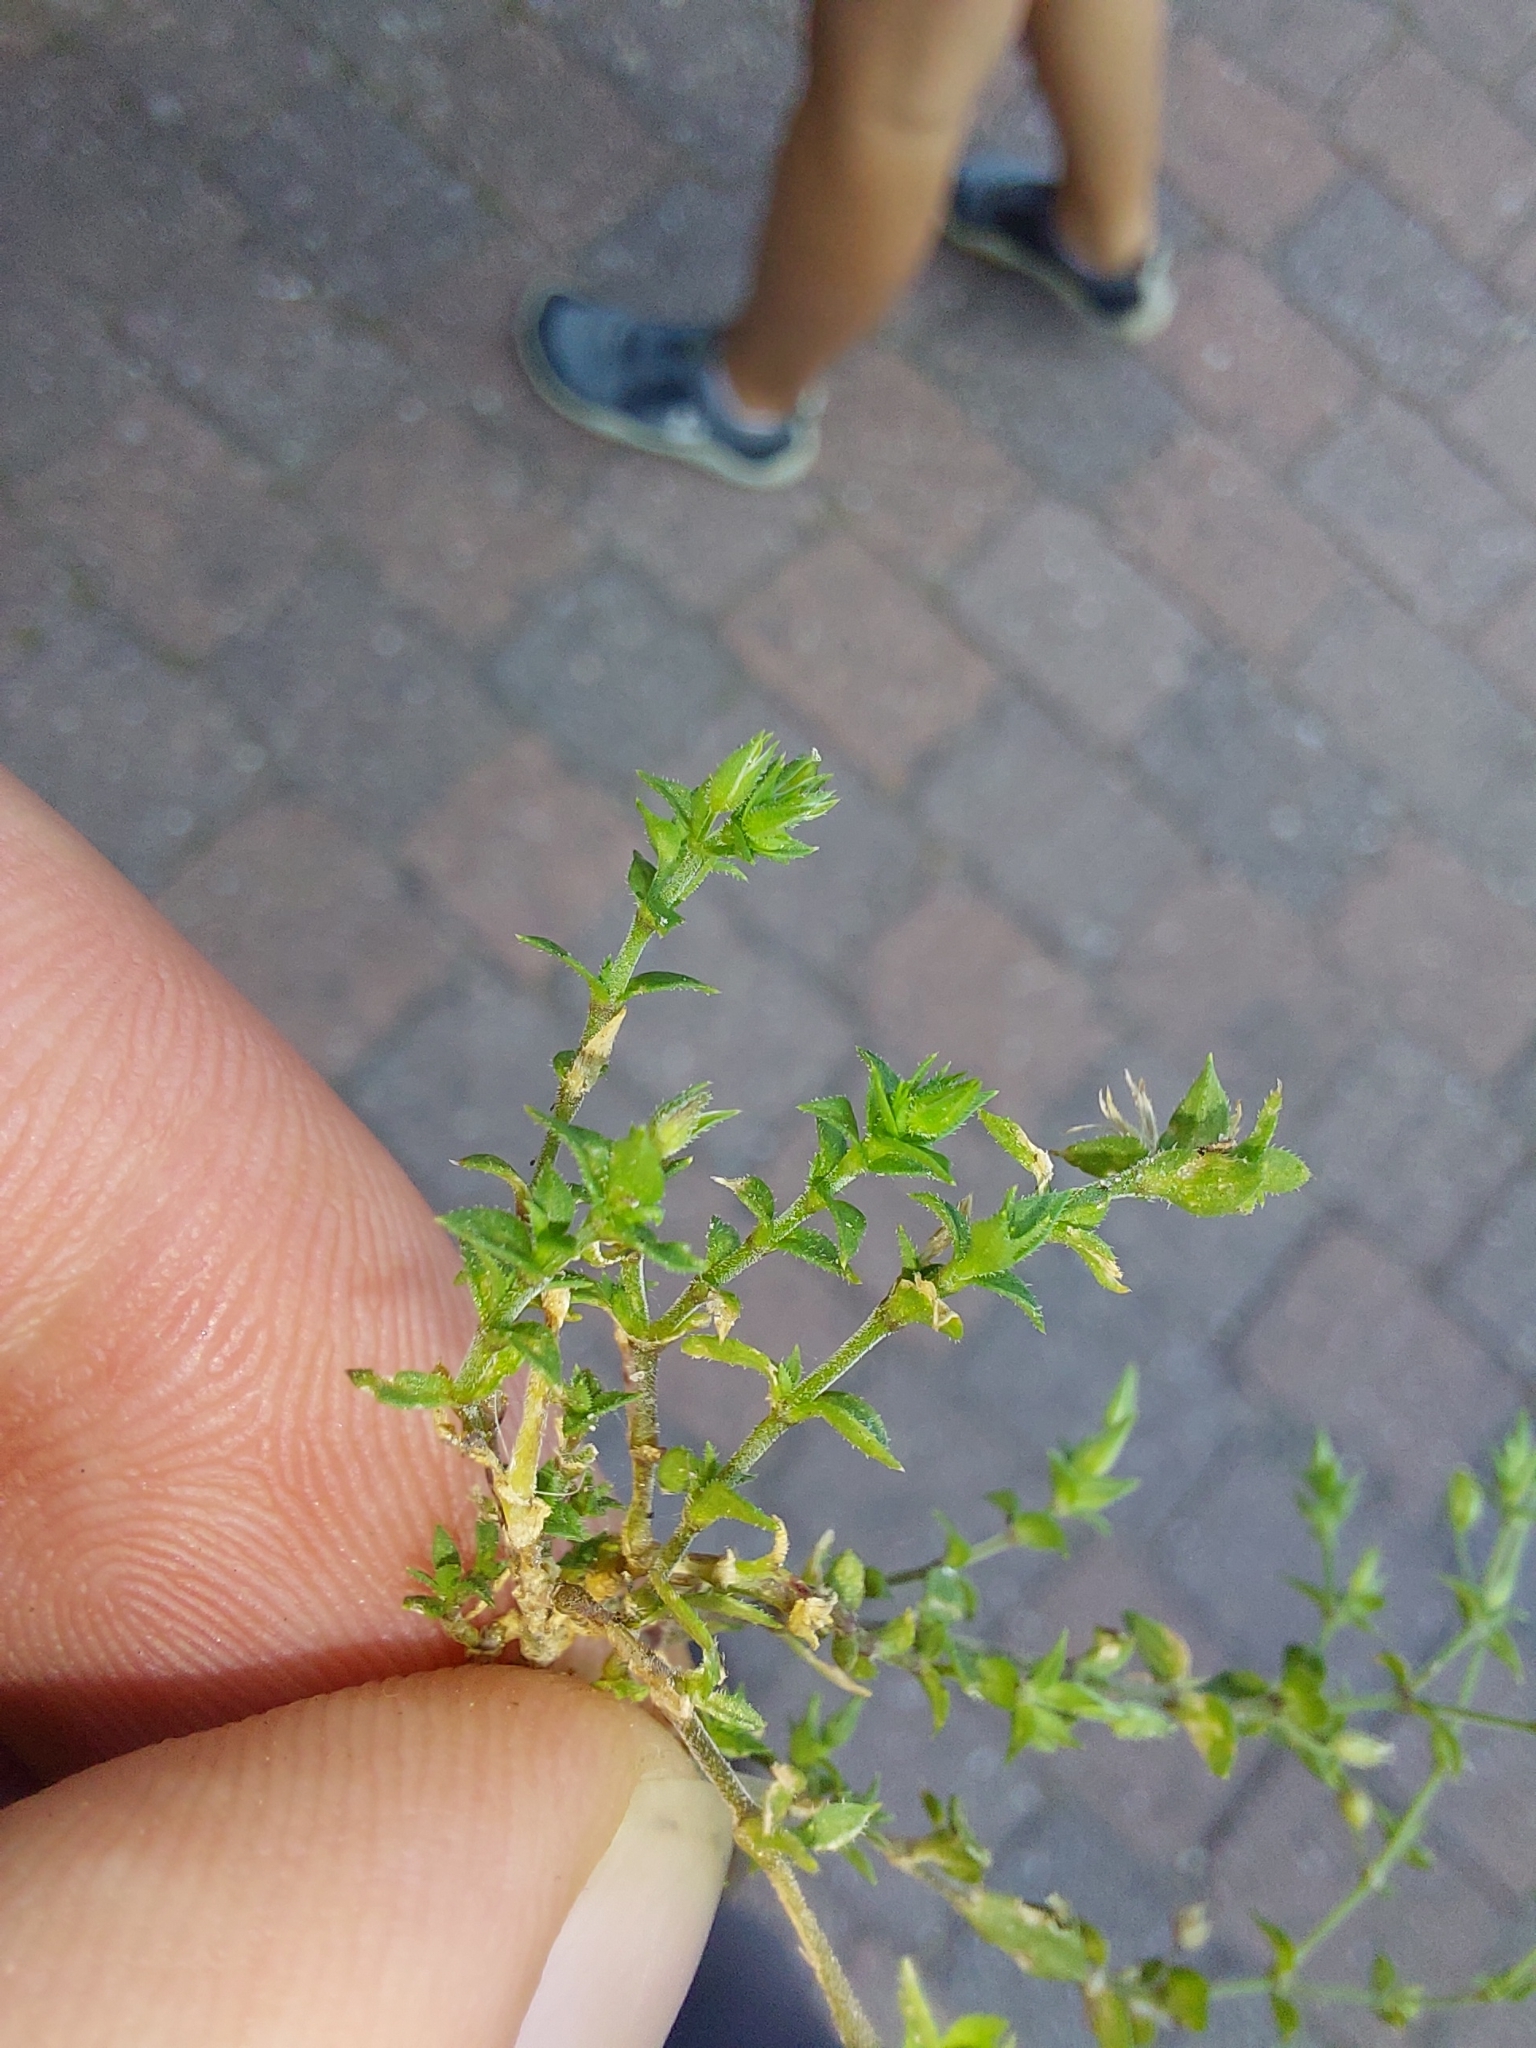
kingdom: Plantae
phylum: Tracheophyta
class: Magnoliopsida
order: Caryophyllales
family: Caryophyllaceae
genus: Arenaria
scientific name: Arenaria serpyllifolia
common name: Thyme-leaved sandwort
